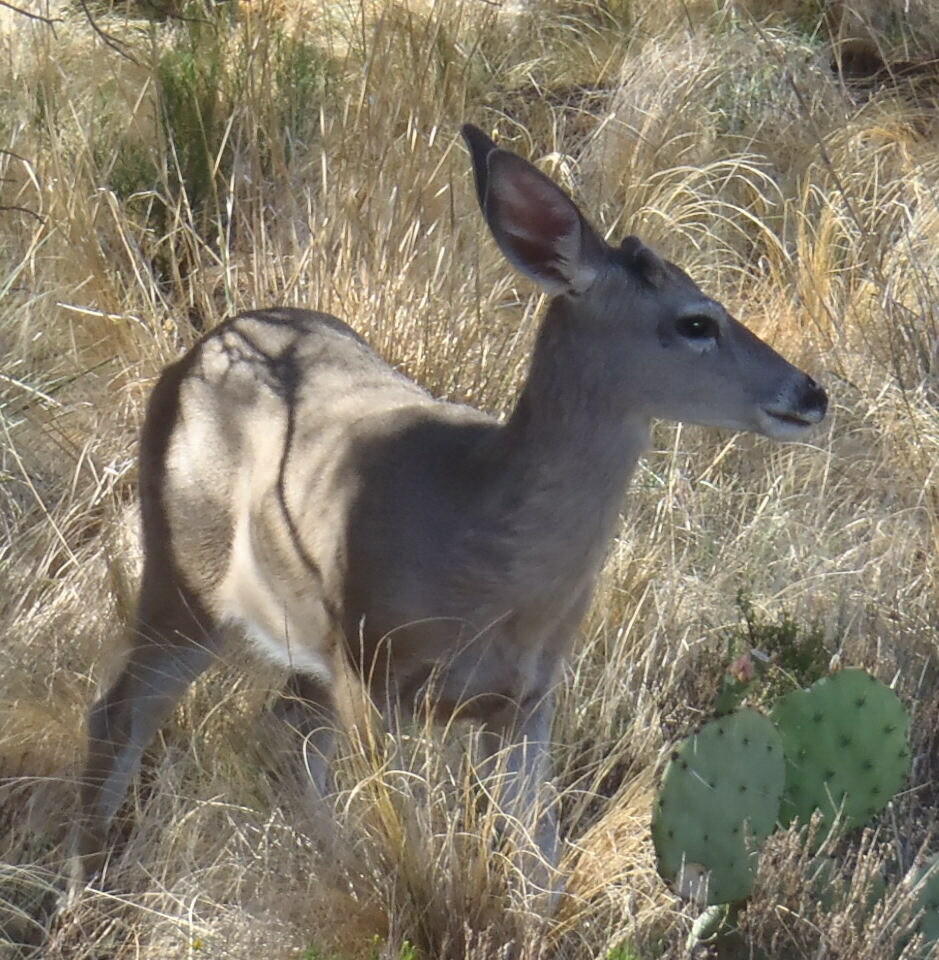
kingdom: Animalia
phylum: Chordata
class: Mammalia
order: Artiodactyla
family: Cervidae
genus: Odocoileus
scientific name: Odocoileus virginianus
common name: White-tailed deer
